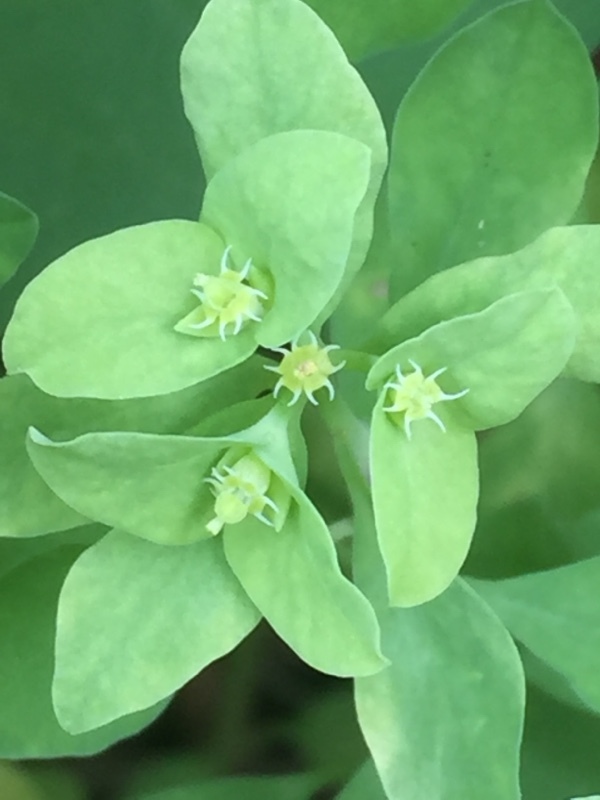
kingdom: Plantae
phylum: Tracheophyta
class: Magnoliopsida
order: Malpighiales
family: Euphorbiaceae
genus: Euphorbia
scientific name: Euphorbia peplus
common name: Petty spurge
